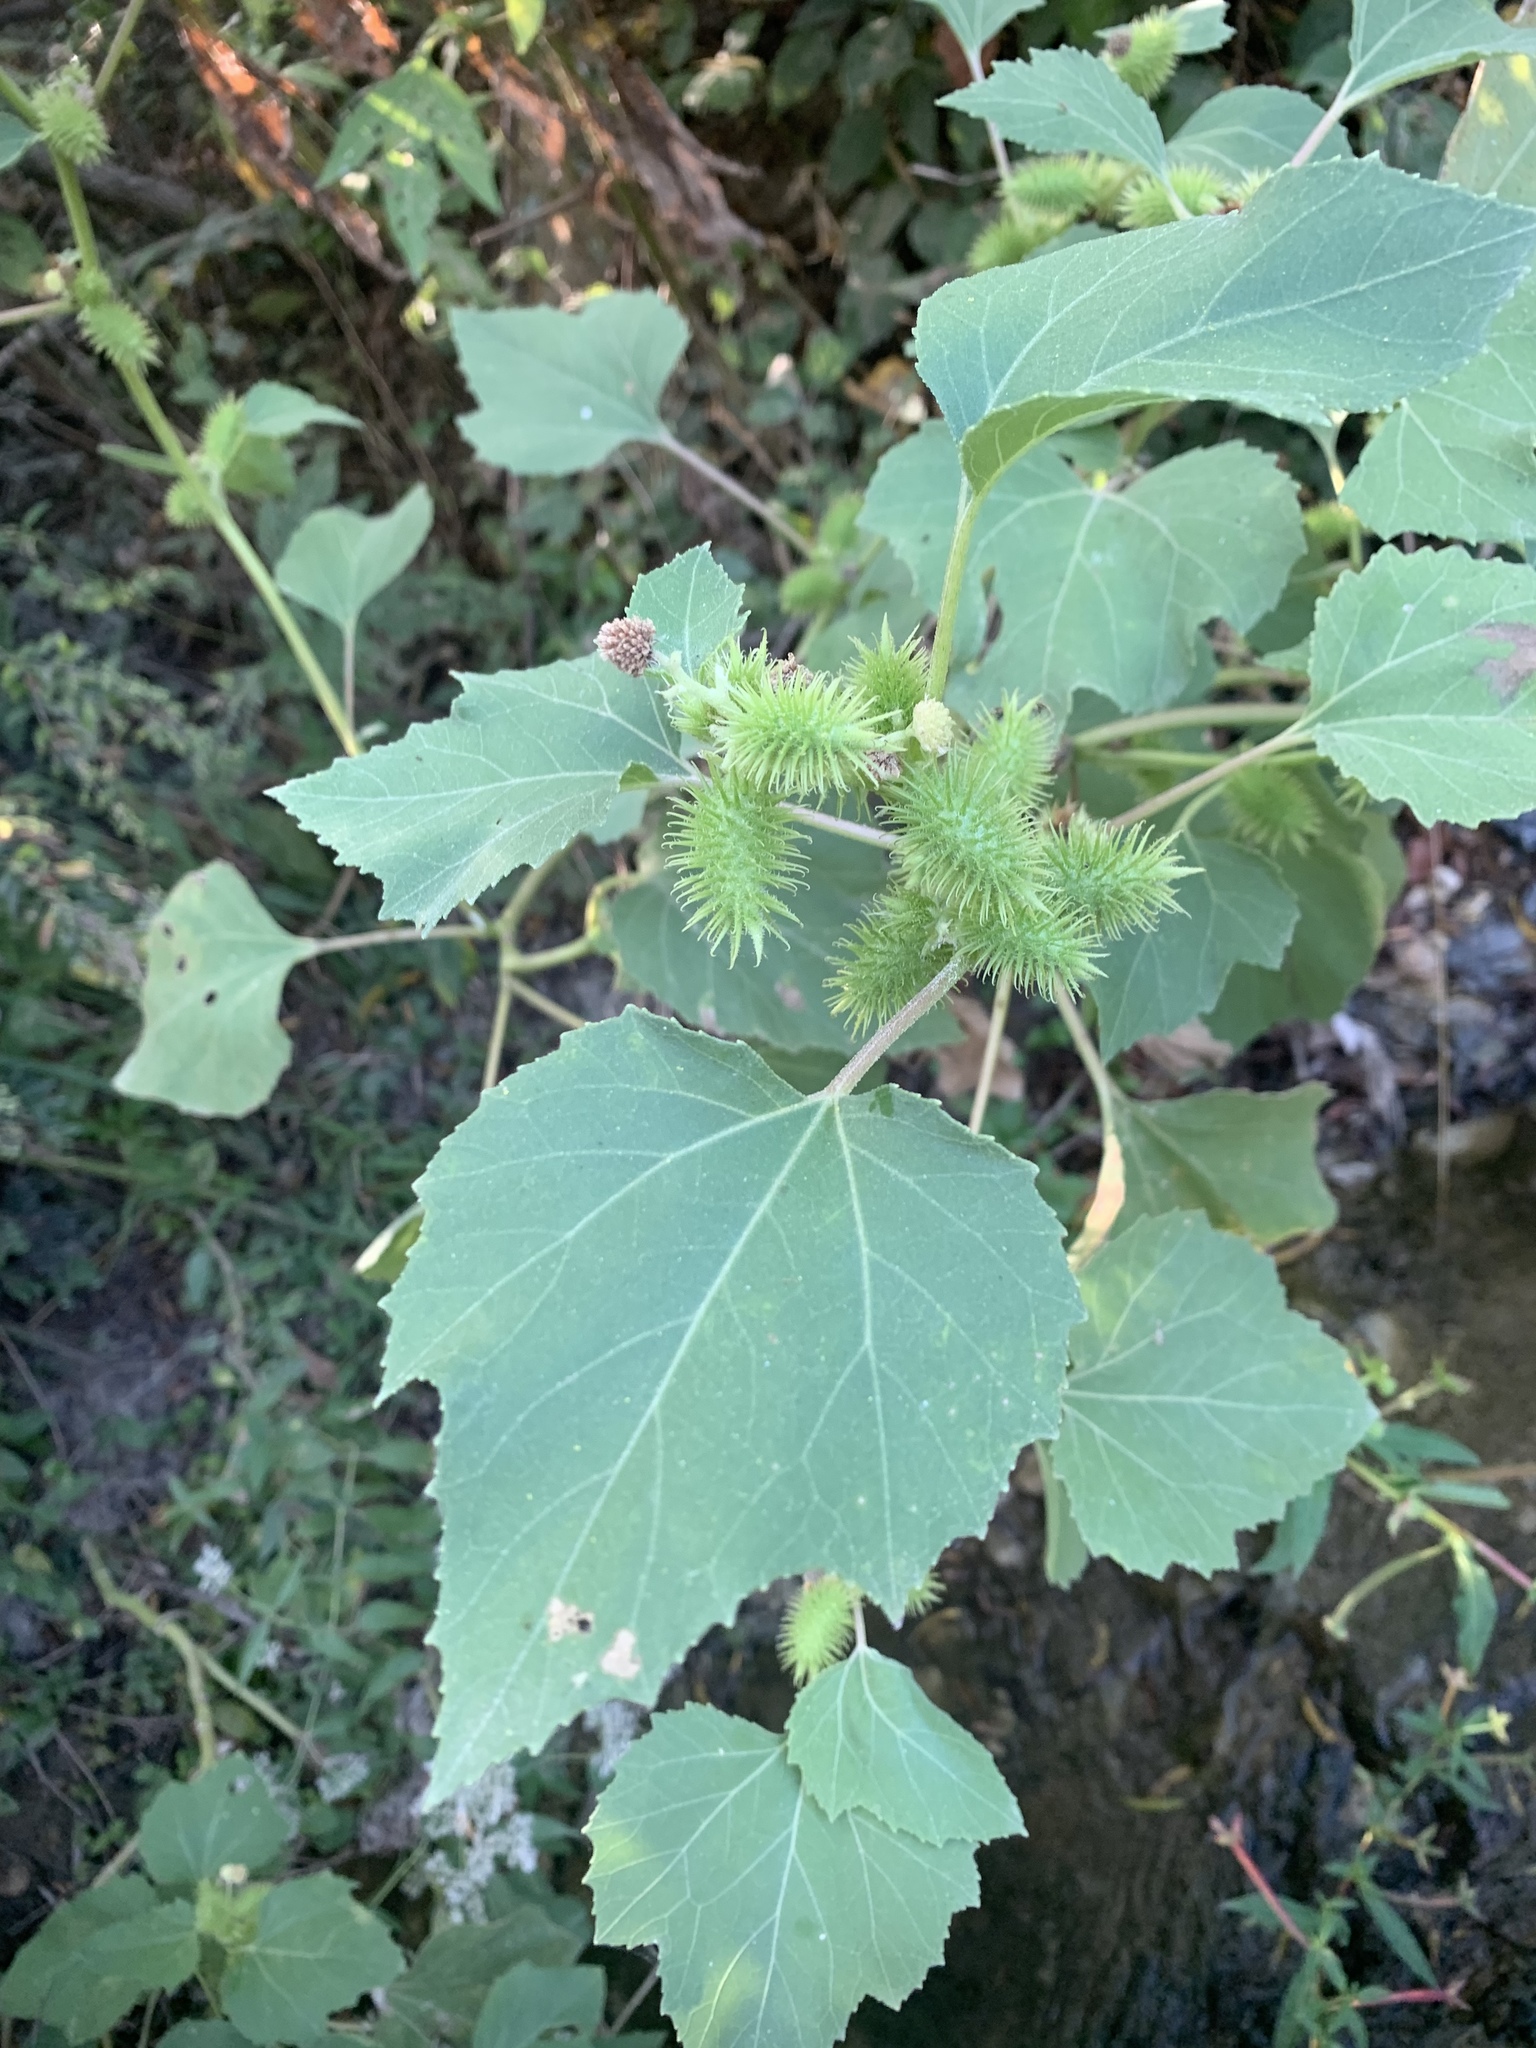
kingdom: Plantae
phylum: Tracheophyta
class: Magnoliopsida
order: Asterales
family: Asteraceae
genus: Xanthium
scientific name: Xanthium strumarium
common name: Rough cocklebur
